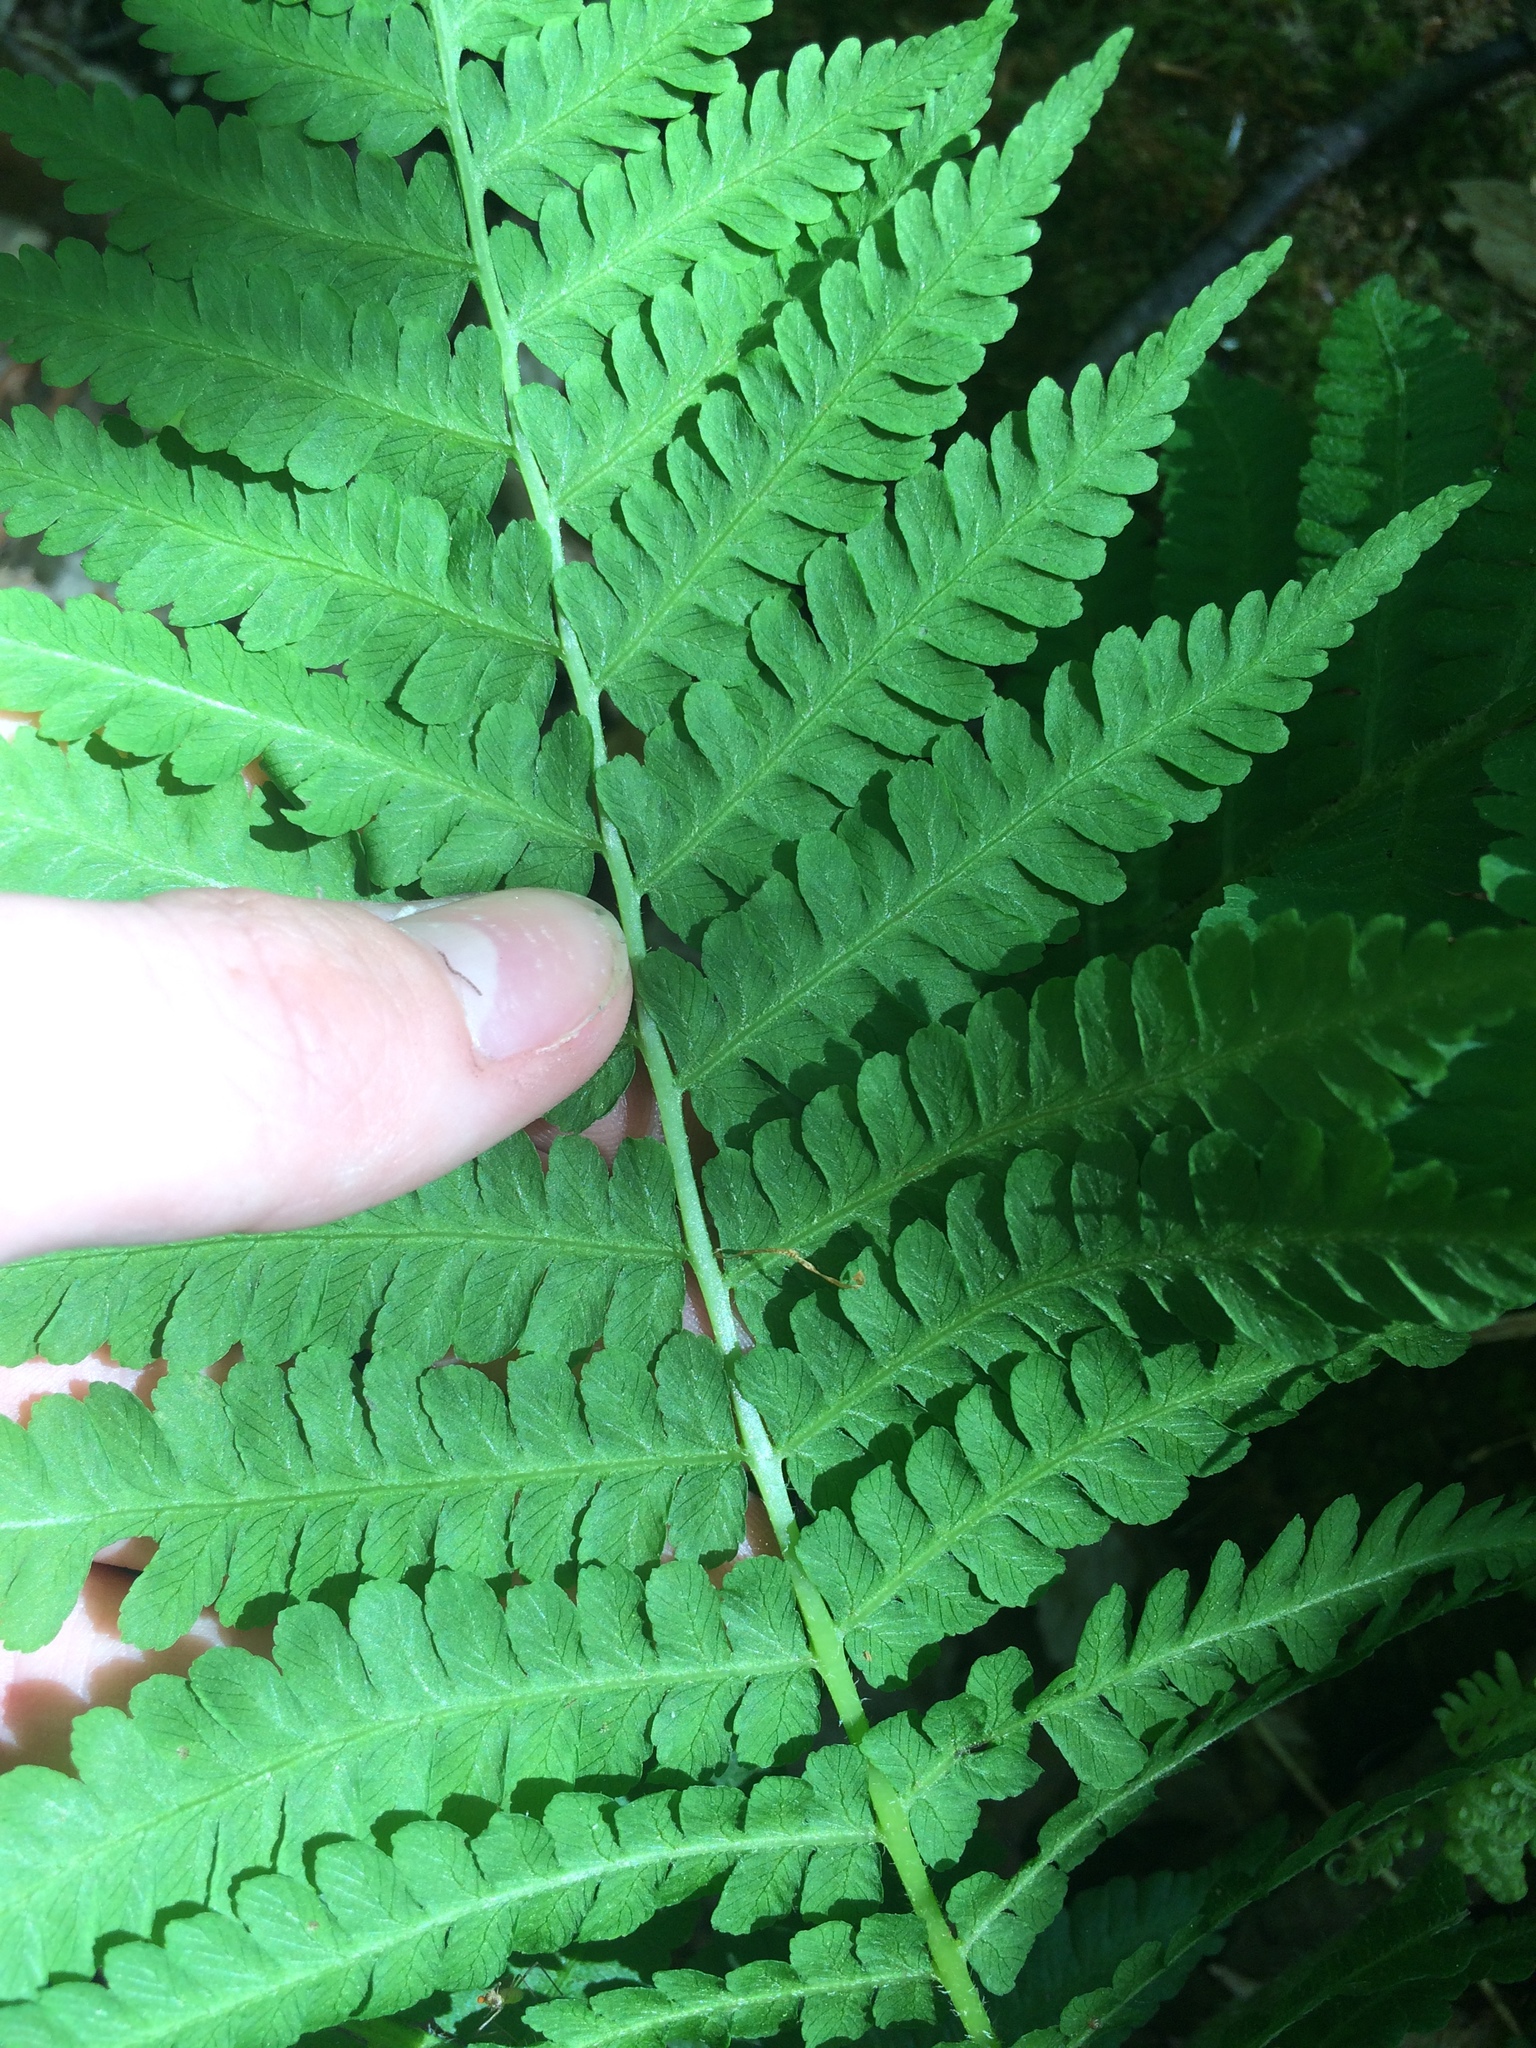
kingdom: Plantae
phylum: Tracheophyta
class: Polypodiopsida
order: Polypodiales
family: Athyriaceae
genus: Deparia
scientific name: Deparia acrostichoides
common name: Silver false spleenwort
